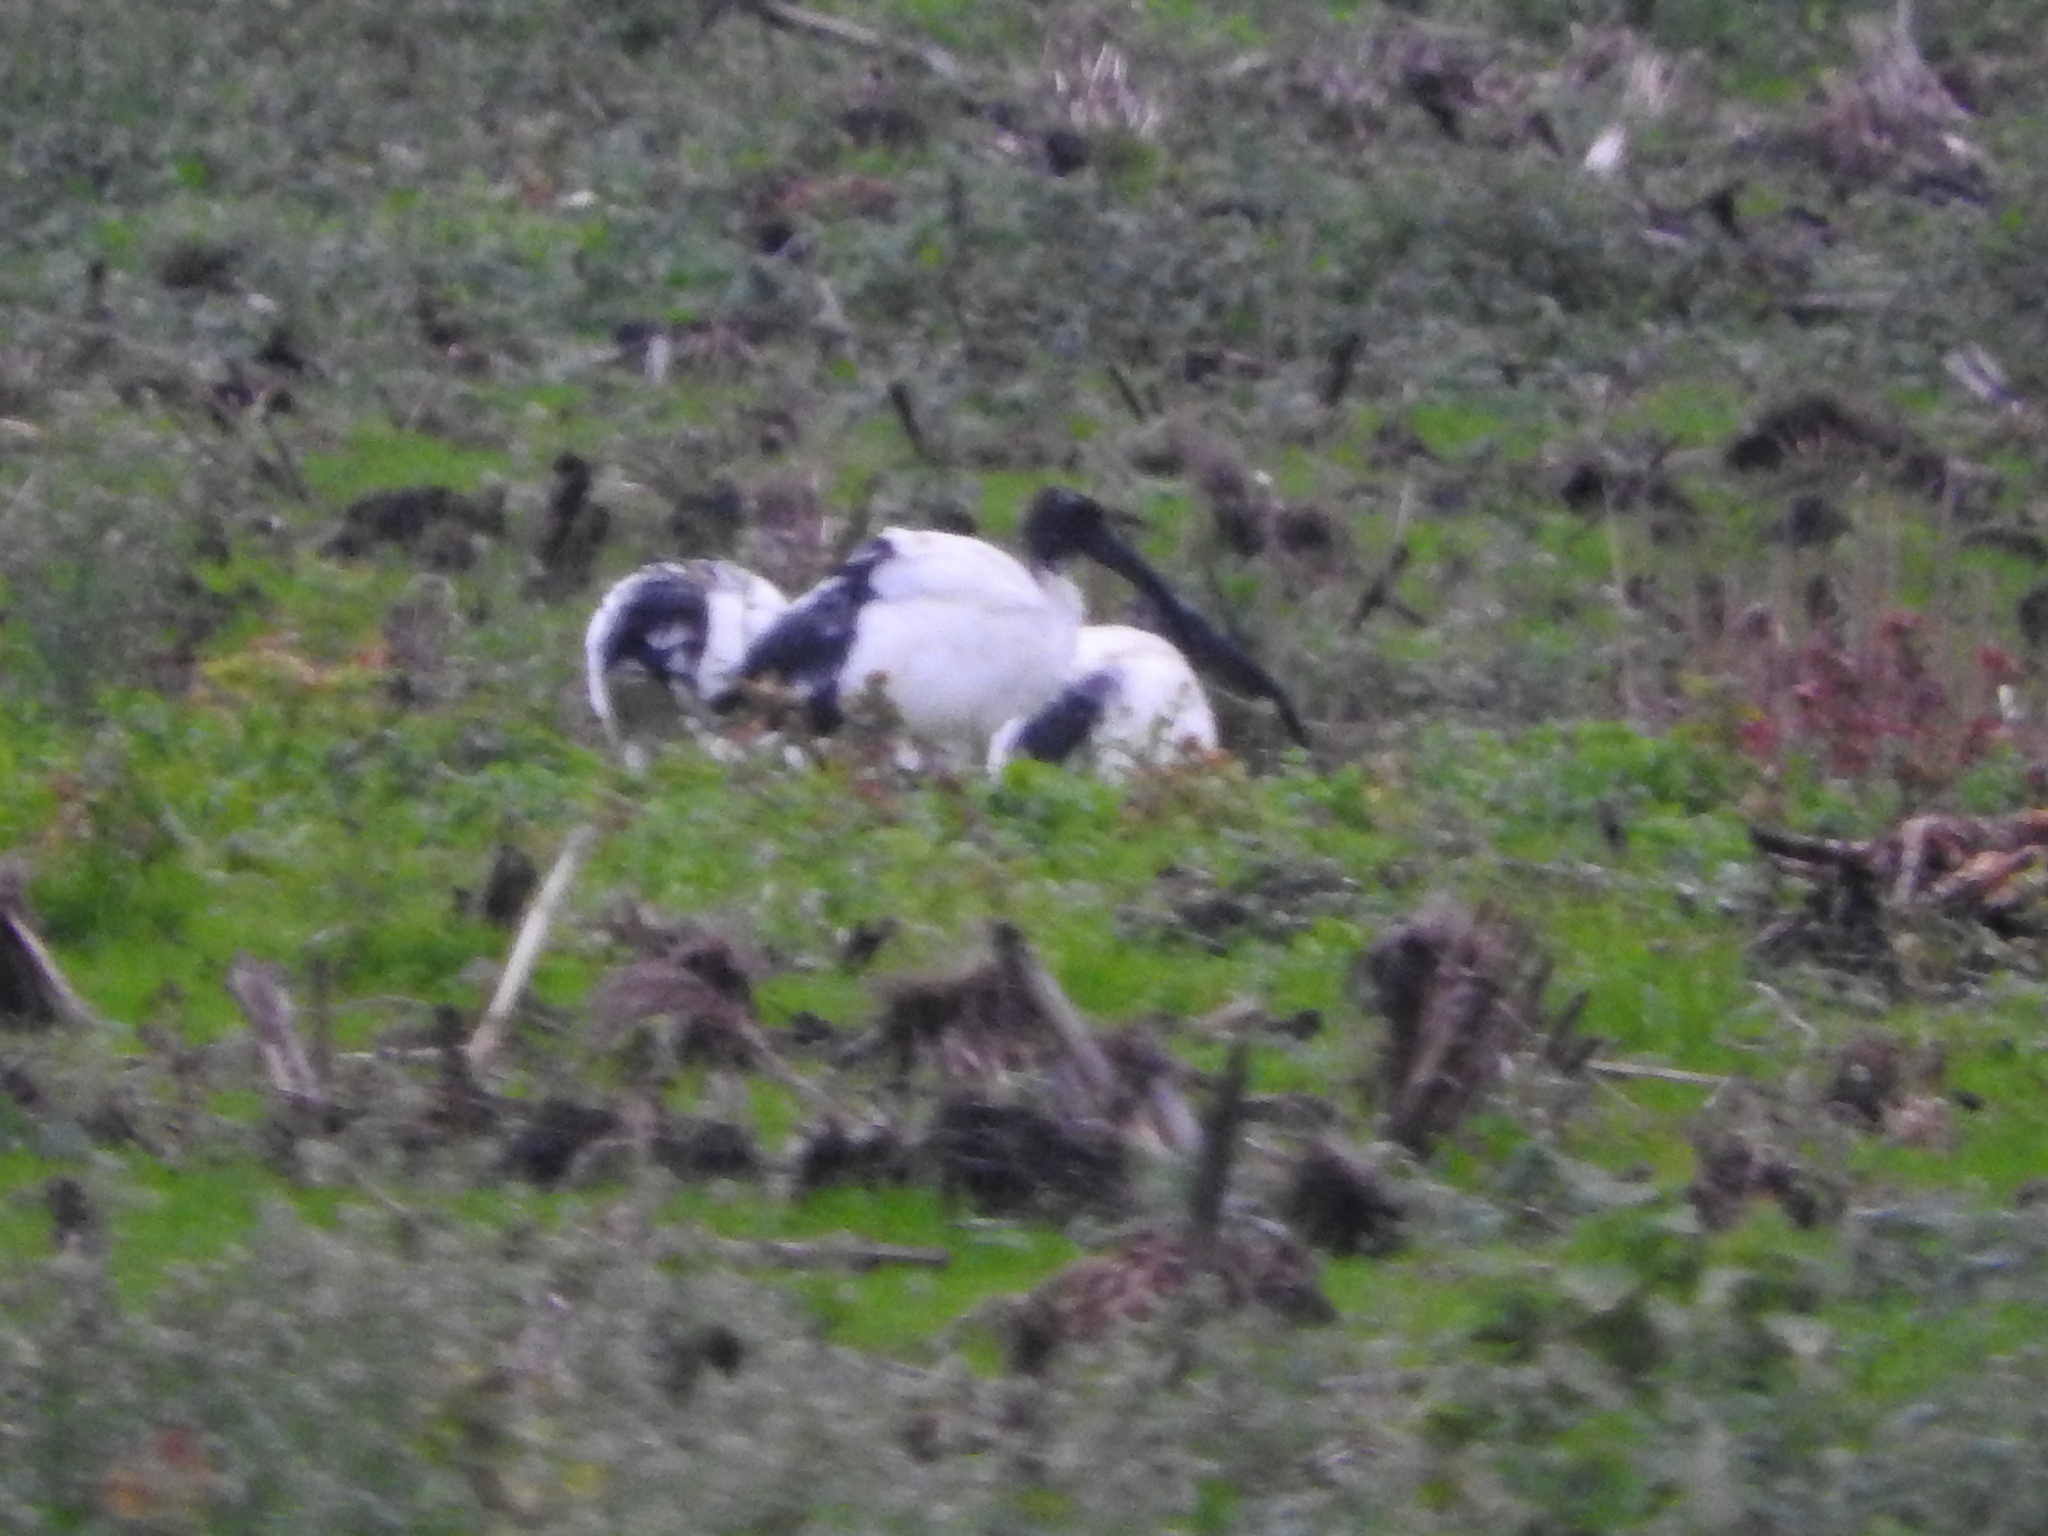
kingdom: Animalia
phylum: Chordata
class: Aves
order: Pelecaniformes
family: Threskiornithidae
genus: Threskiornis
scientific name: Threskiornis aethiopicus
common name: Sacred ibis
